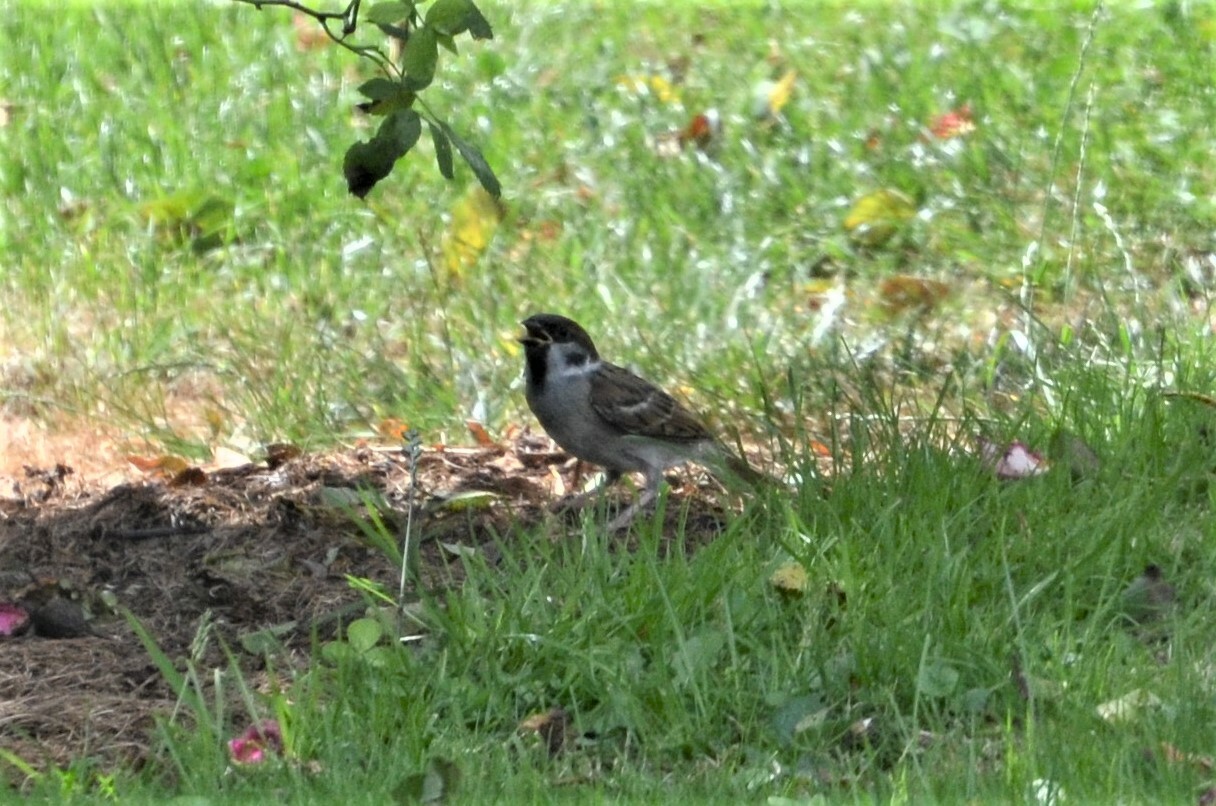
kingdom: Animalia
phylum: Chordata
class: Aves
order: Passeriformes
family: Passeridae
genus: Passer
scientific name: Passer montanus
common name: Eurasian tree sparrow
